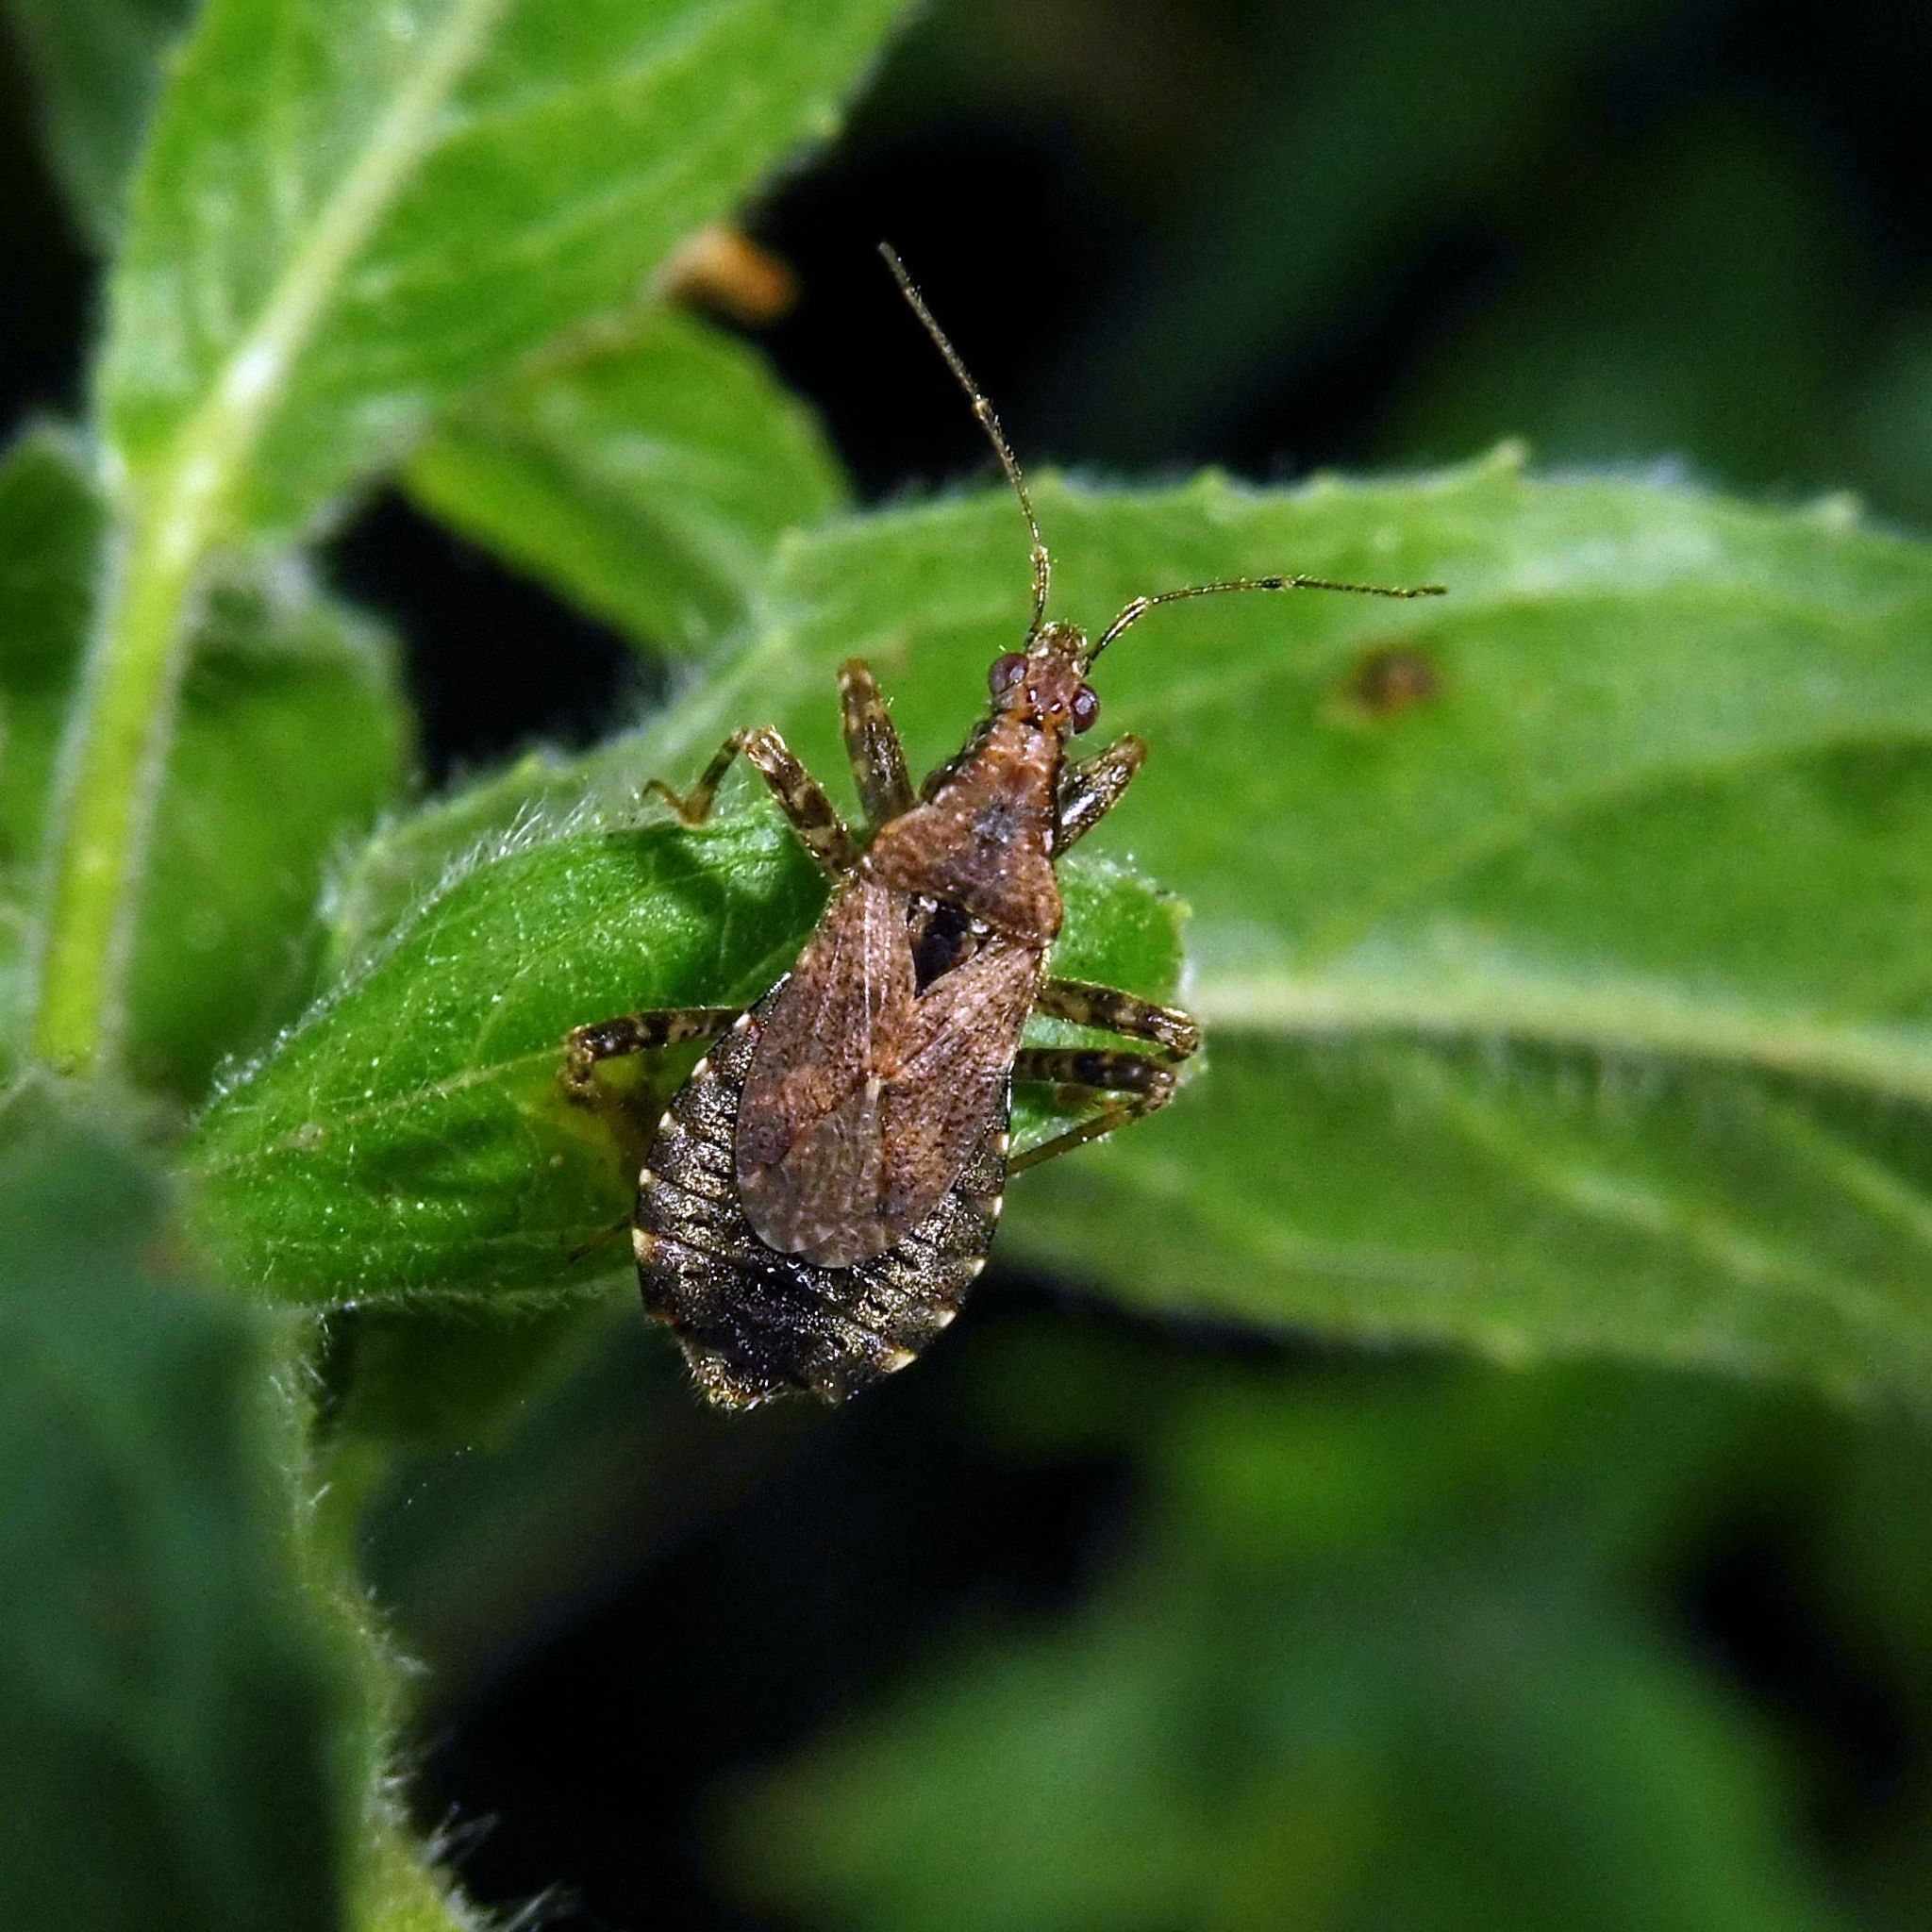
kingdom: Animalia
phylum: Arthropoda
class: Insecta
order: Hemiptera
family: Nabidae
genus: Himacerus
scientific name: Himacerus mirmicoides
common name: Ant damsel bug
